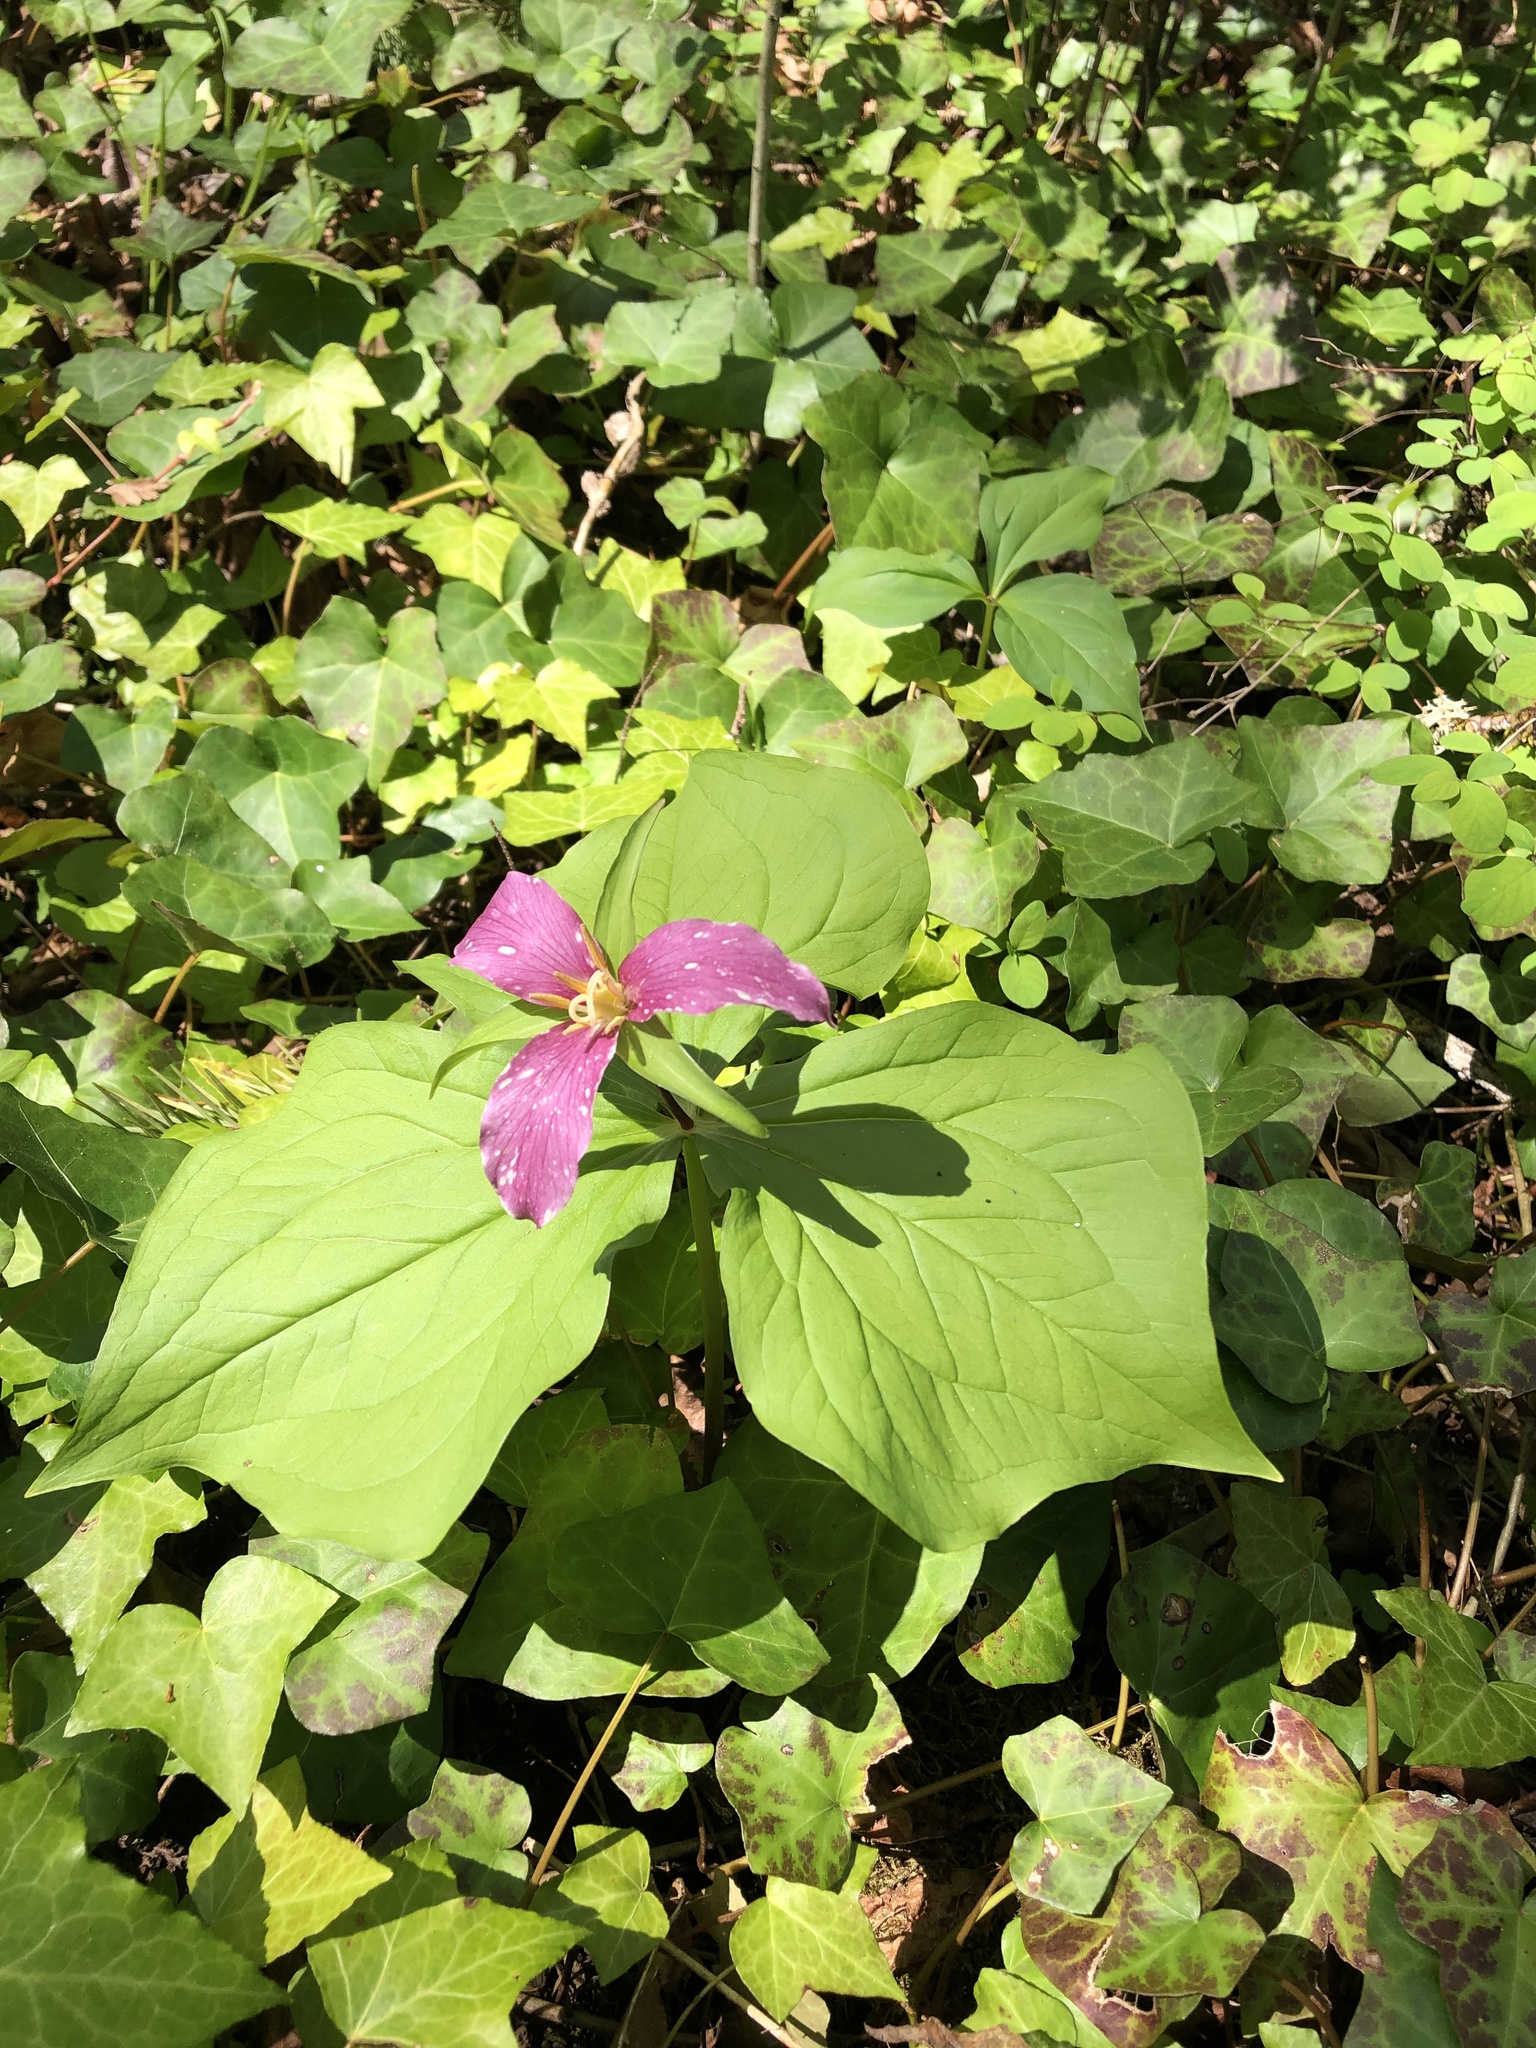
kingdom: Plantae
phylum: Tracheophyta
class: Liliopsida
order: Liliales
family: Melanthiaceae
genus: Trillium
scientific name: Trillium ovatum
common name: Pacific trillium
